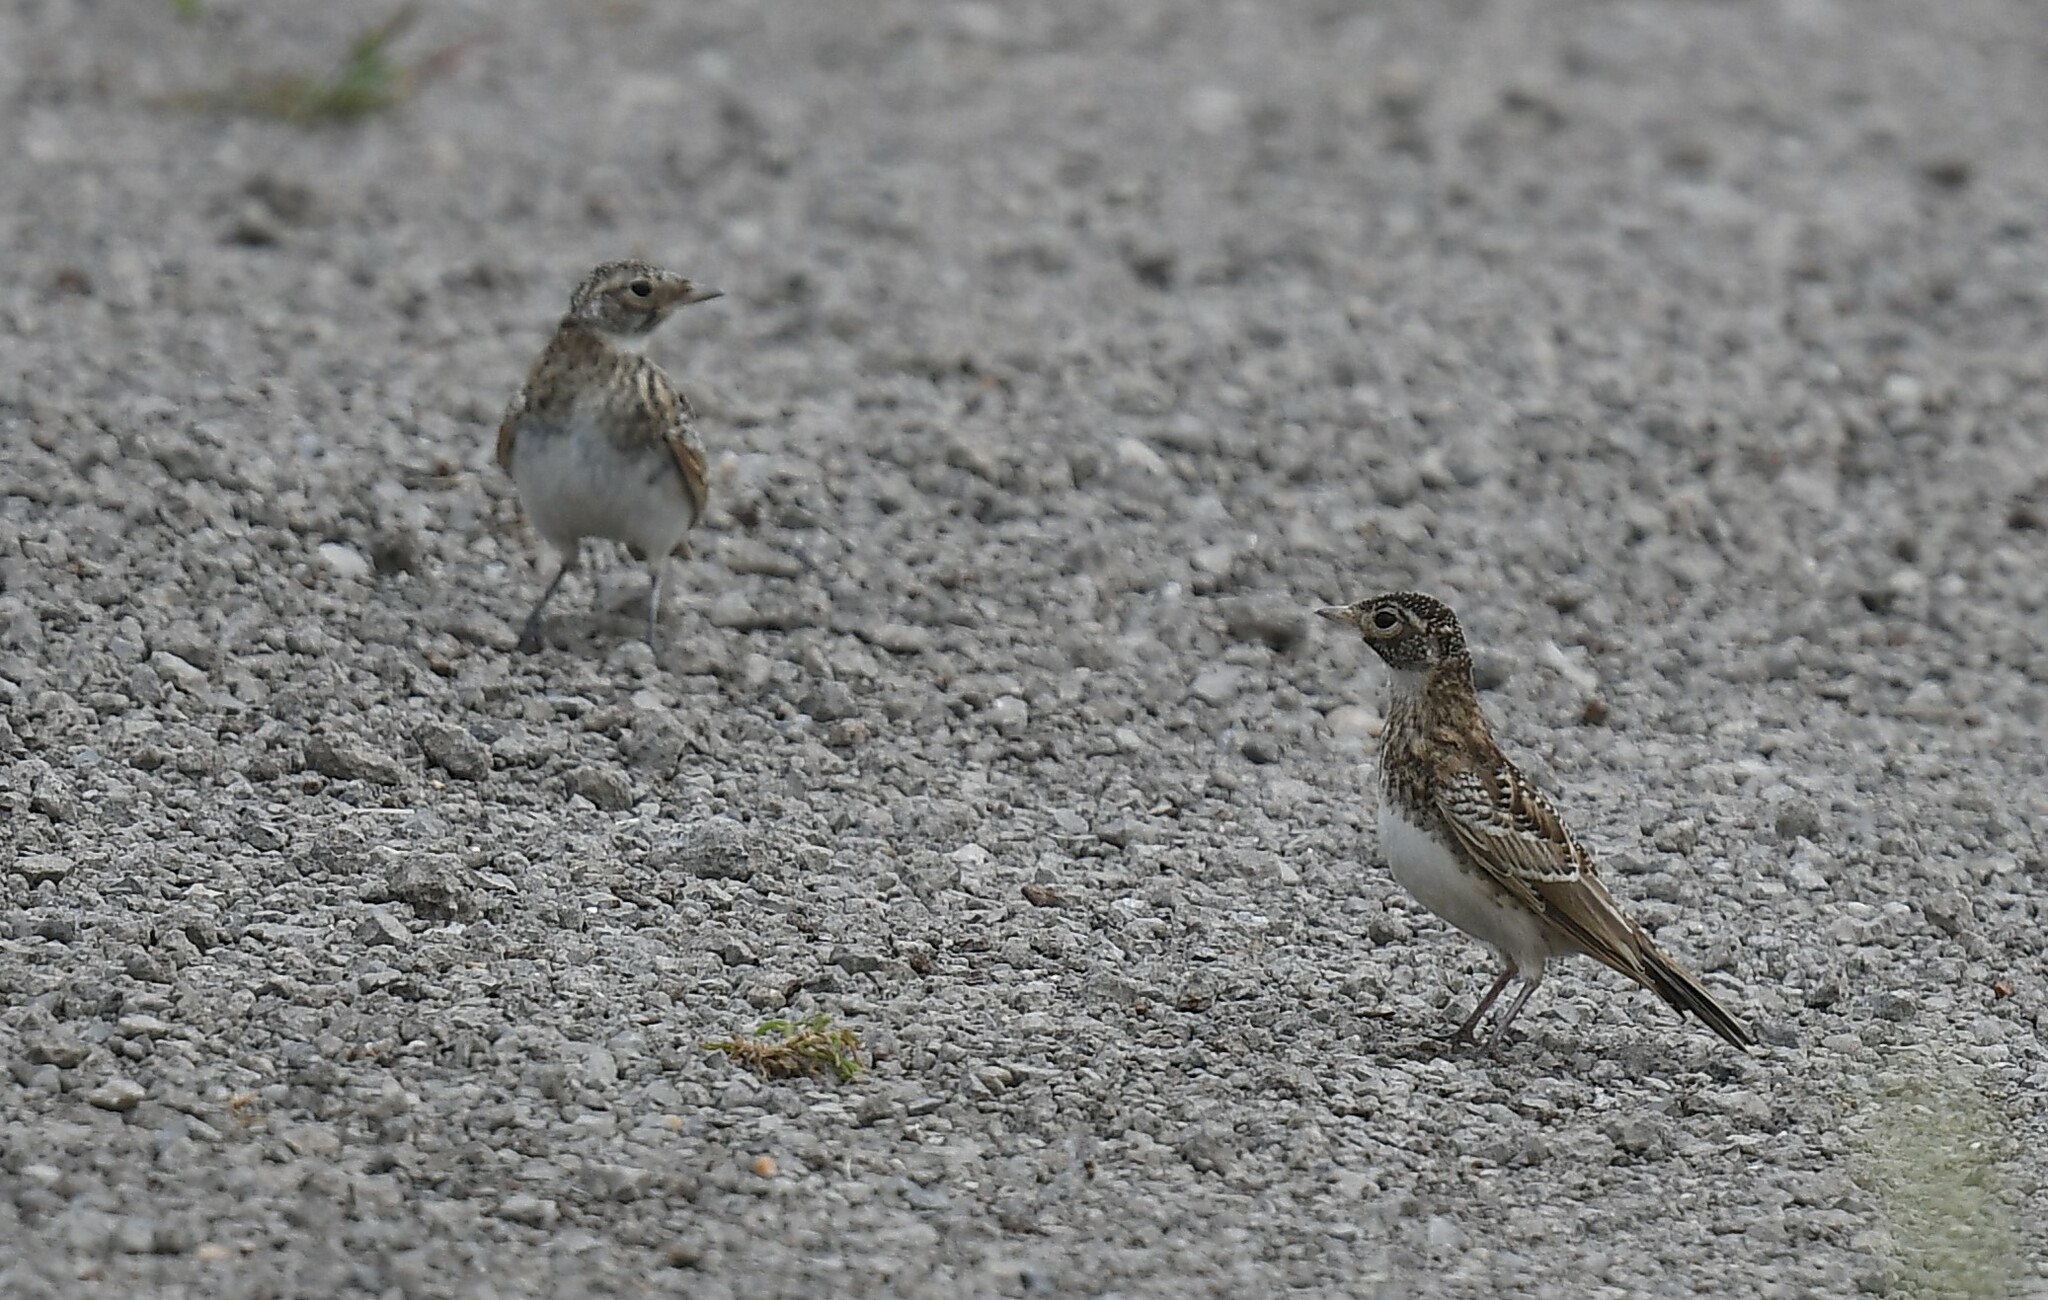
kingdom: Animalia
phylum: Chordata
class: Aves
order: Passeriformes
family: Alaudidae
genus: Eremophila
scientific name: Eremophila alpestris
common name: Horned lark
